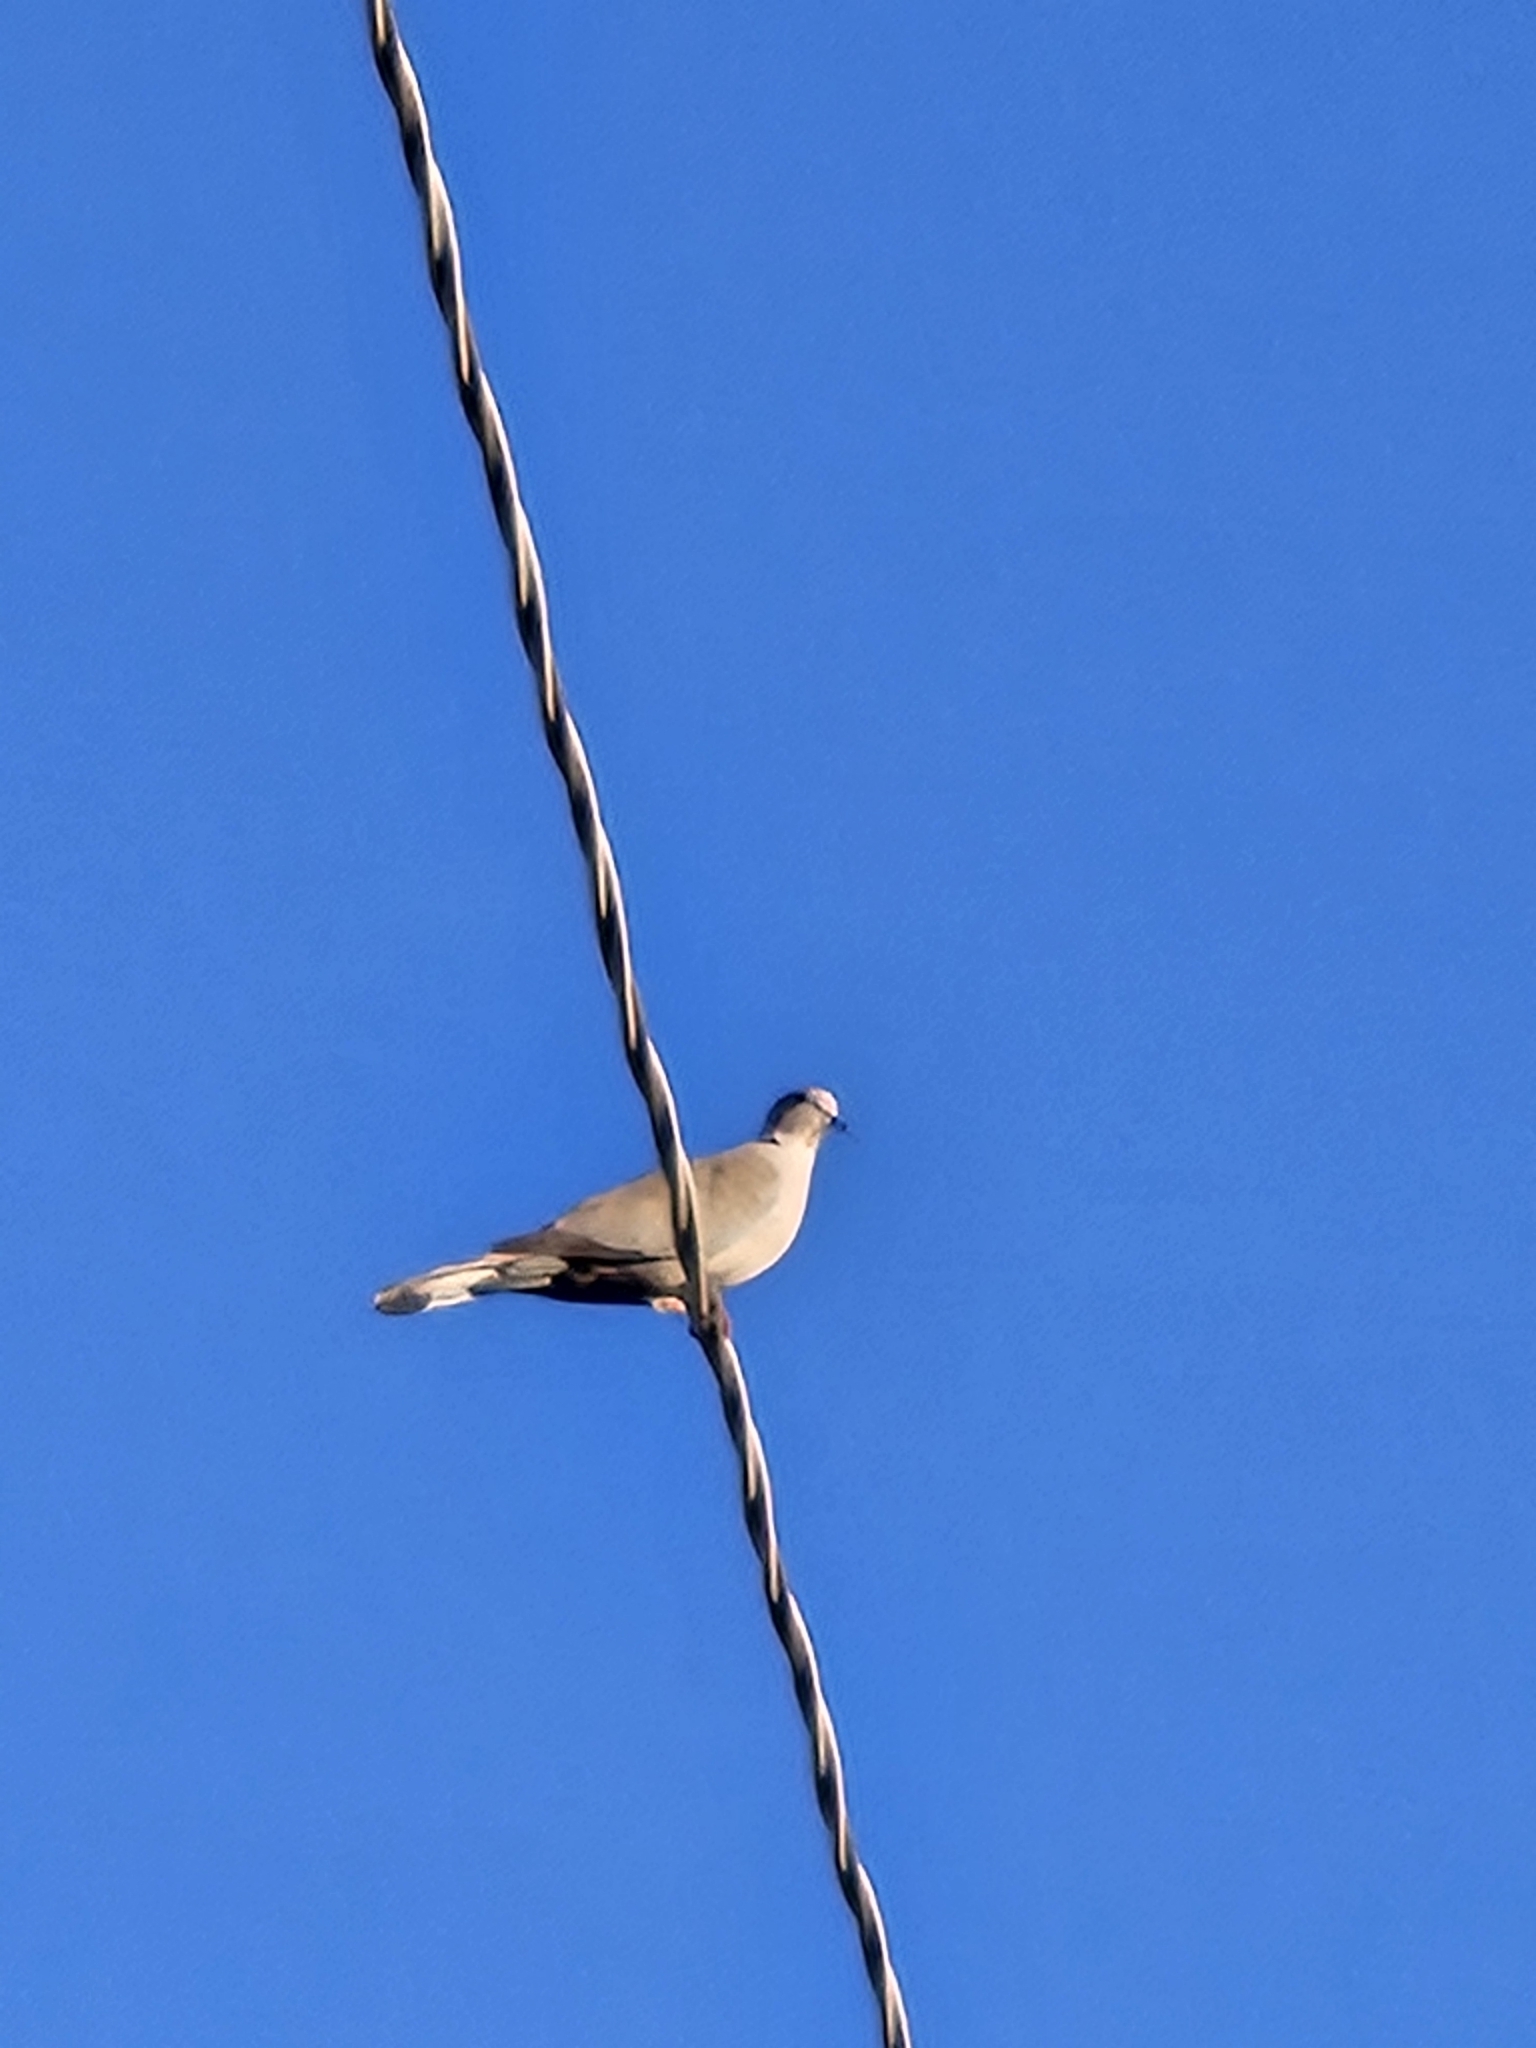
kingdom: Animalia
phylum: Chordata
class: Aves
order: Columbiformes
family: Columbidae
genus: Streptopelia
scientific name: Streptopelia decaocto
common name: Eurasian collared dove
